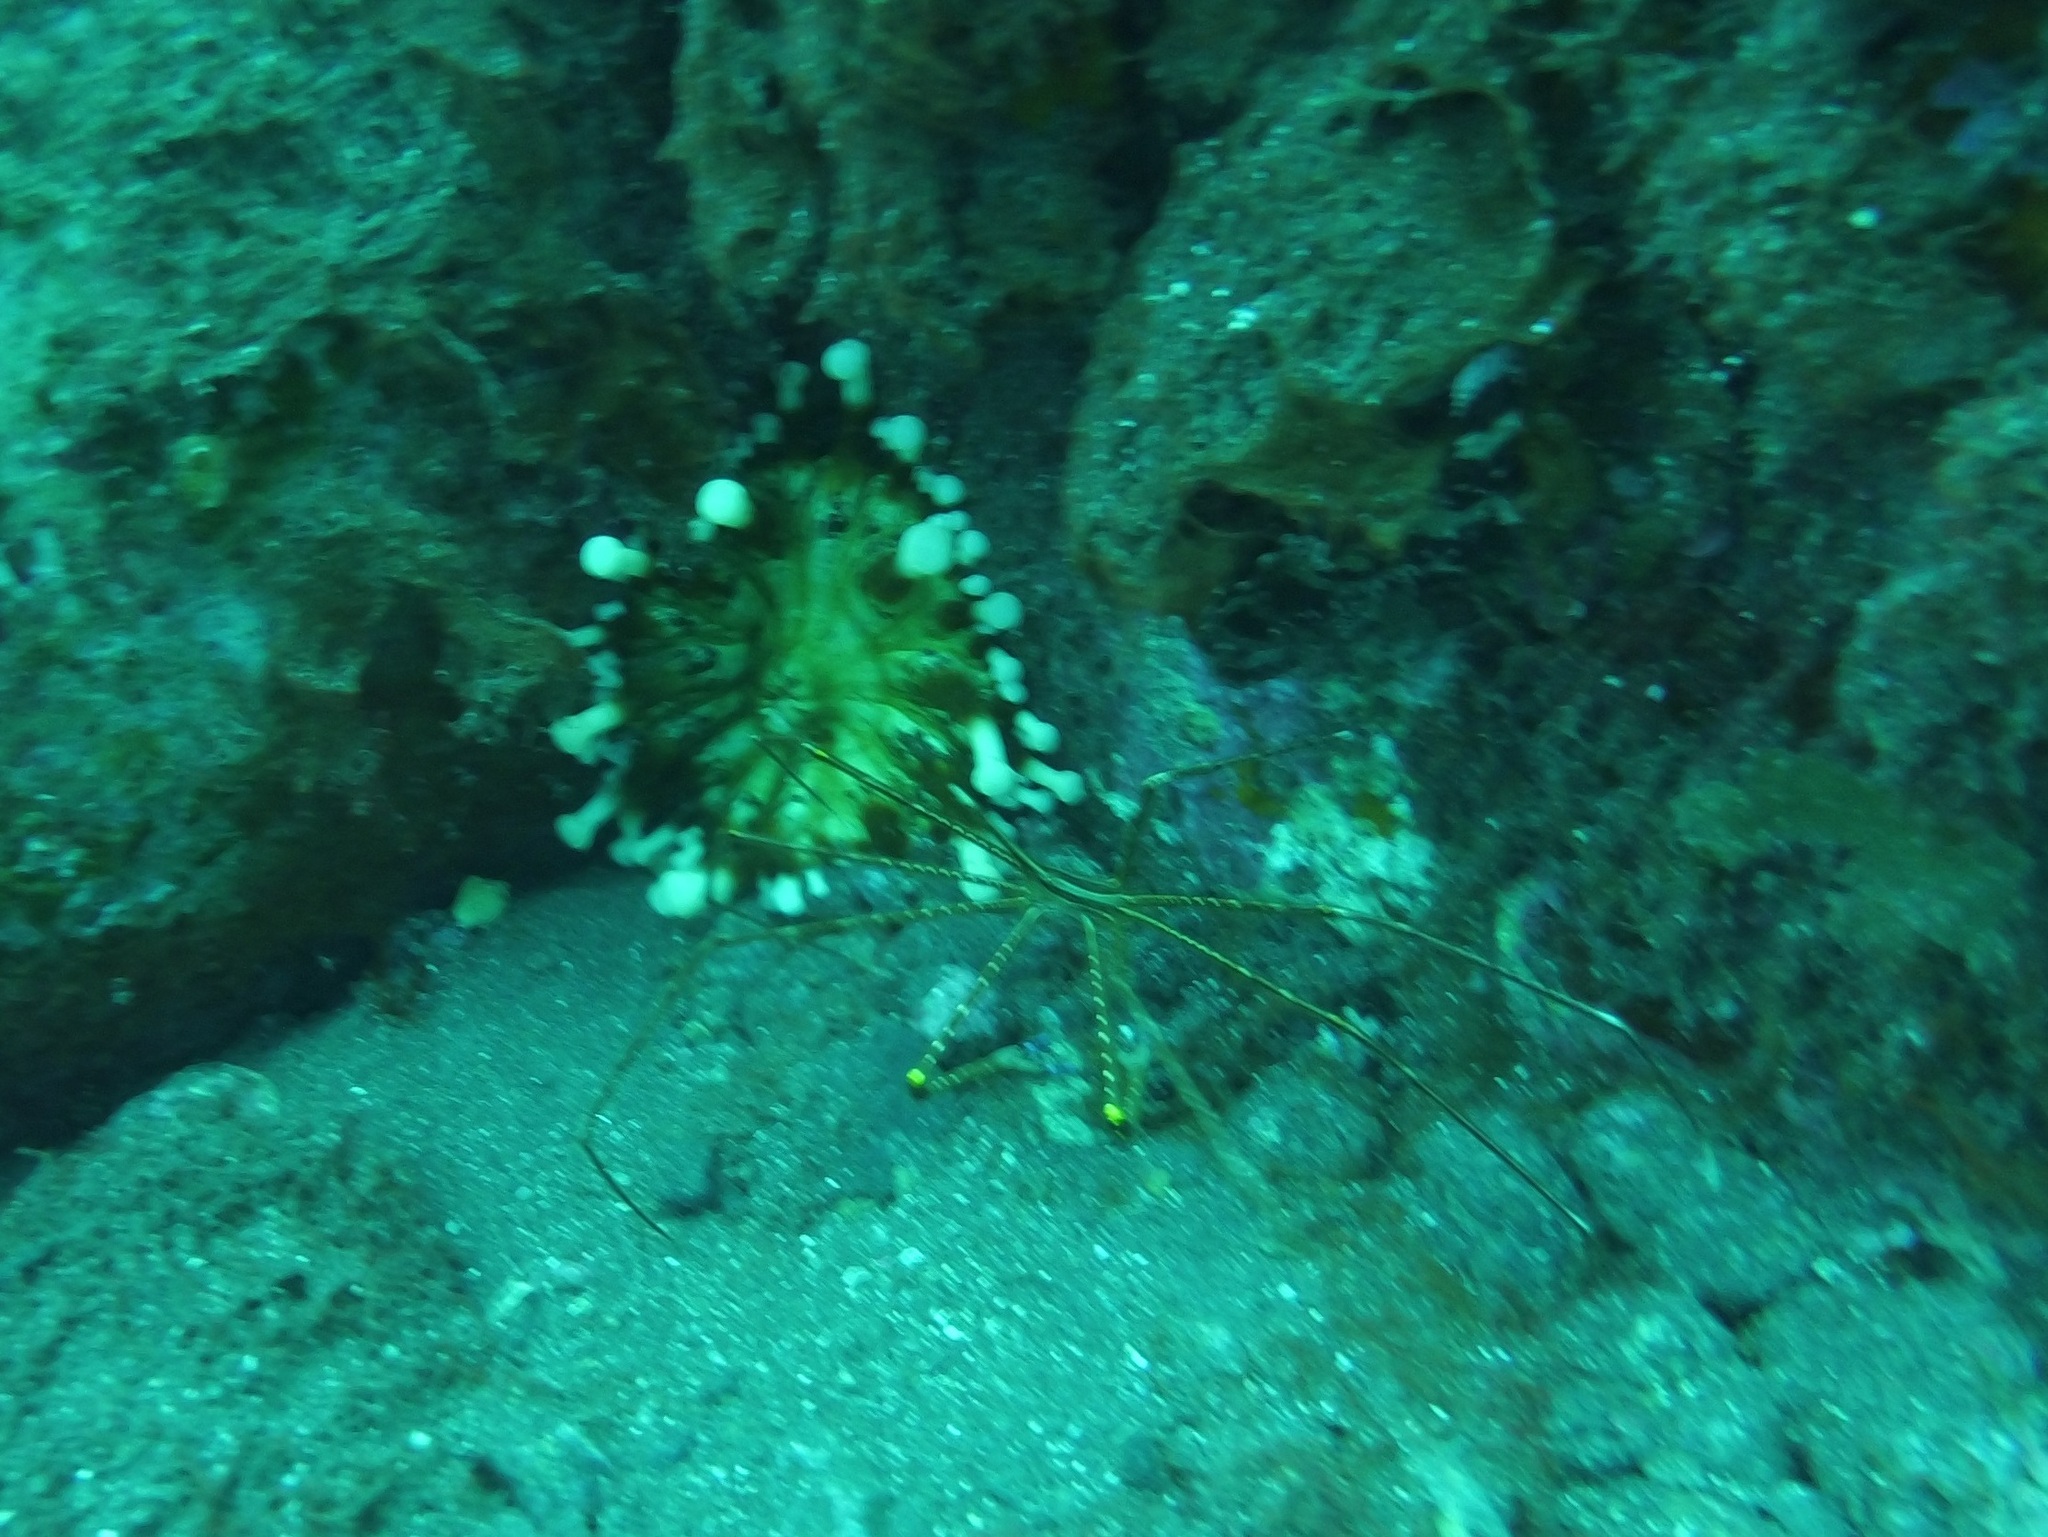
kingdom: Animalia
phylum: Arthropoda
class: Malacostraca
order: Decapoda
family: Inachoididae
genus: Stenorhynchus
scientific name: Stenorhynchus lanceolatus
